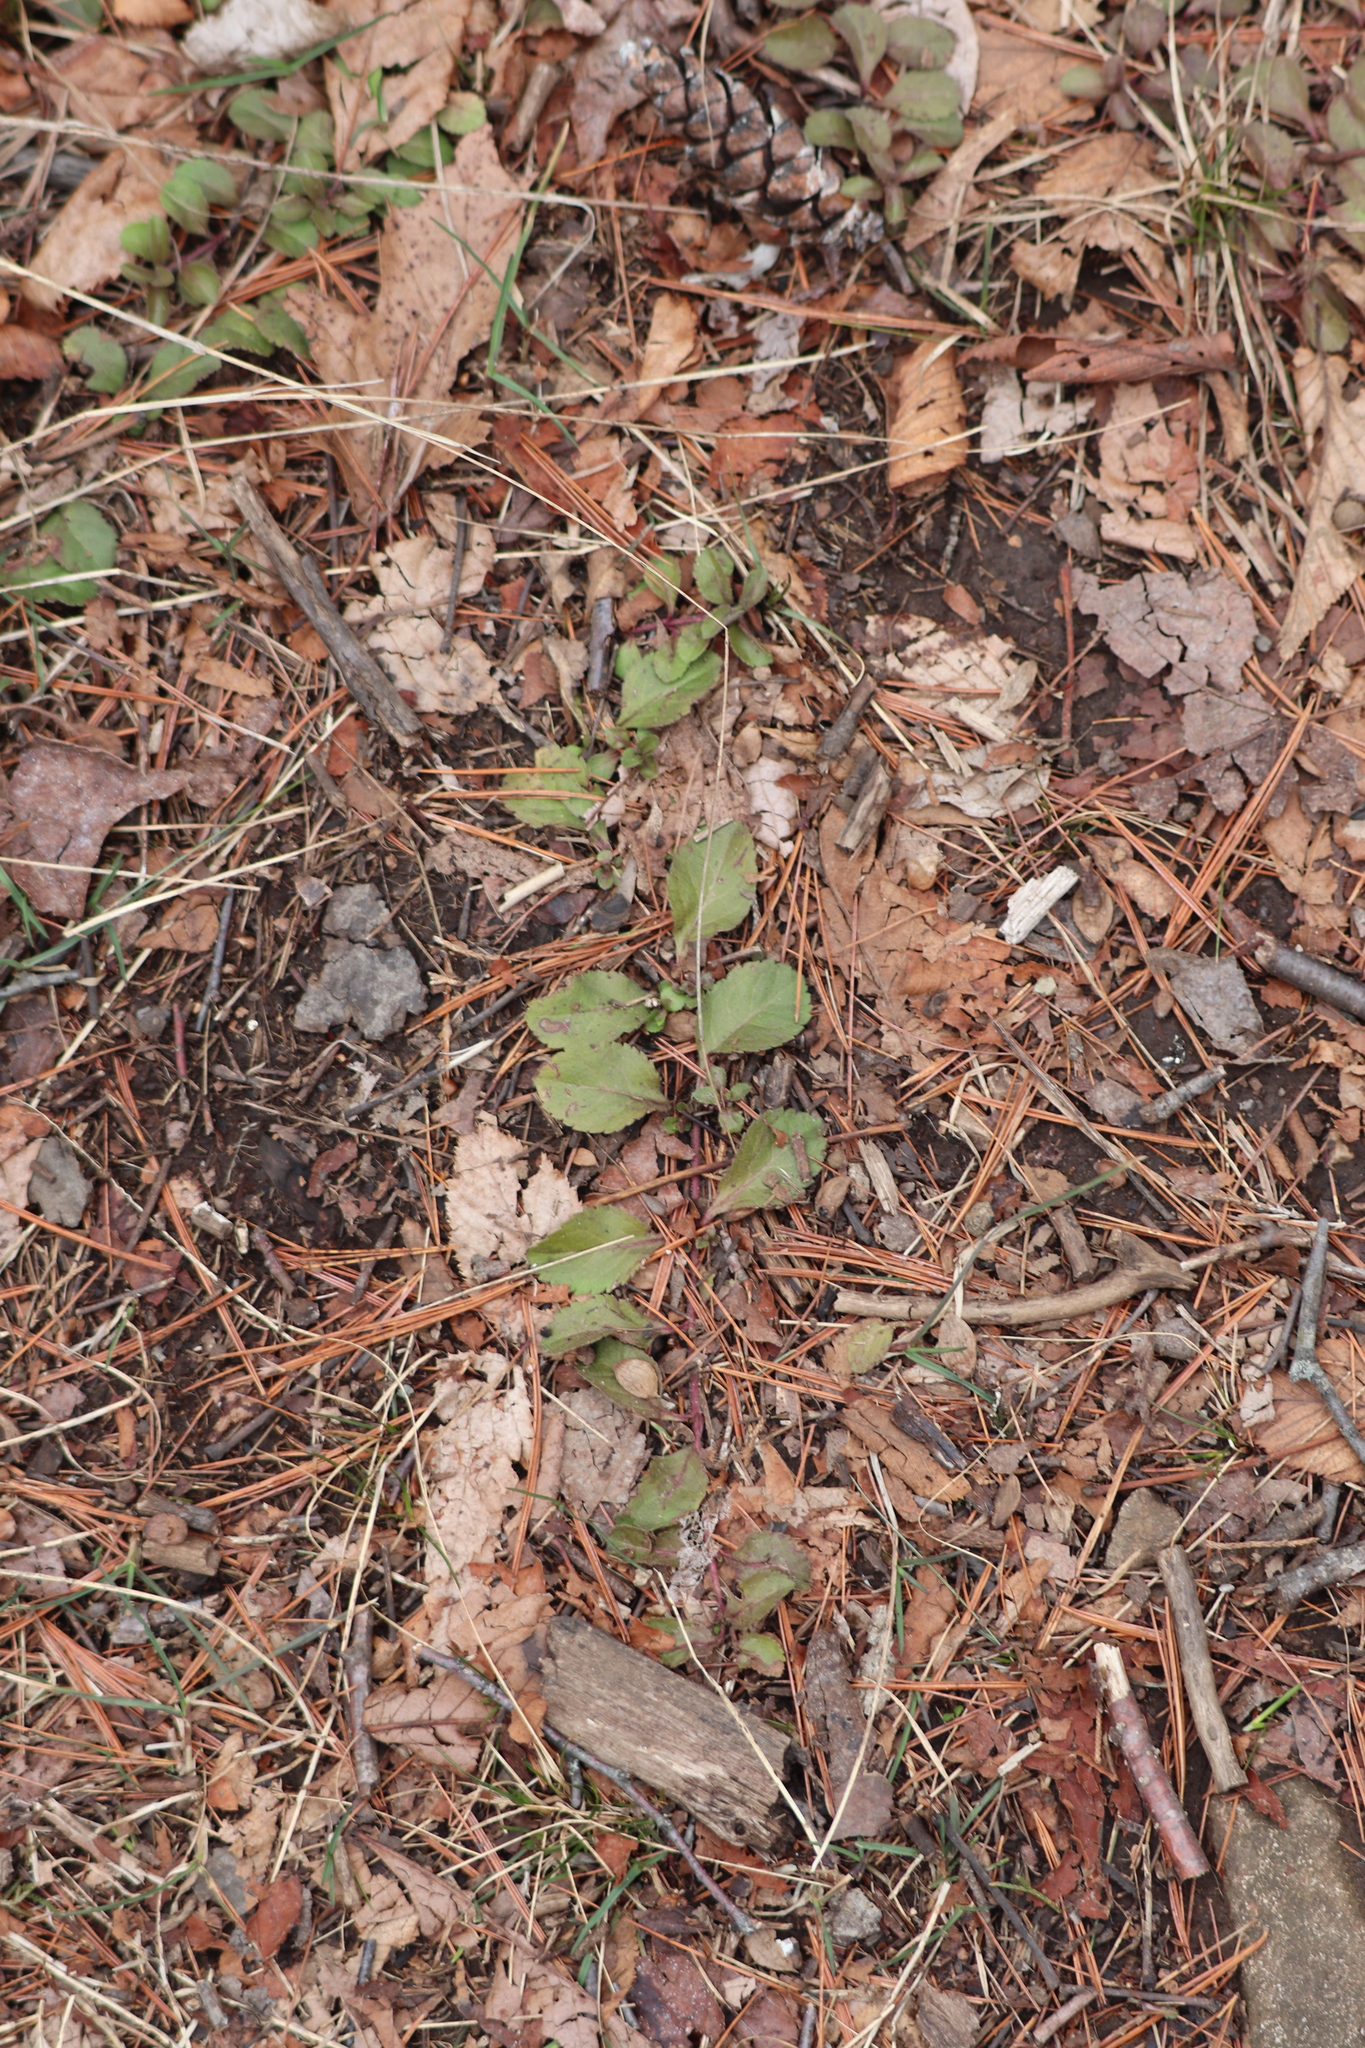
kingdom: Plantae
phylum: Tracheophyta
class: Magnoliopsida
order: Lamiales
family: Plantaginaceae
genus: Veronica
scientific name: Veronica officinalis
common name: Common speedwell
